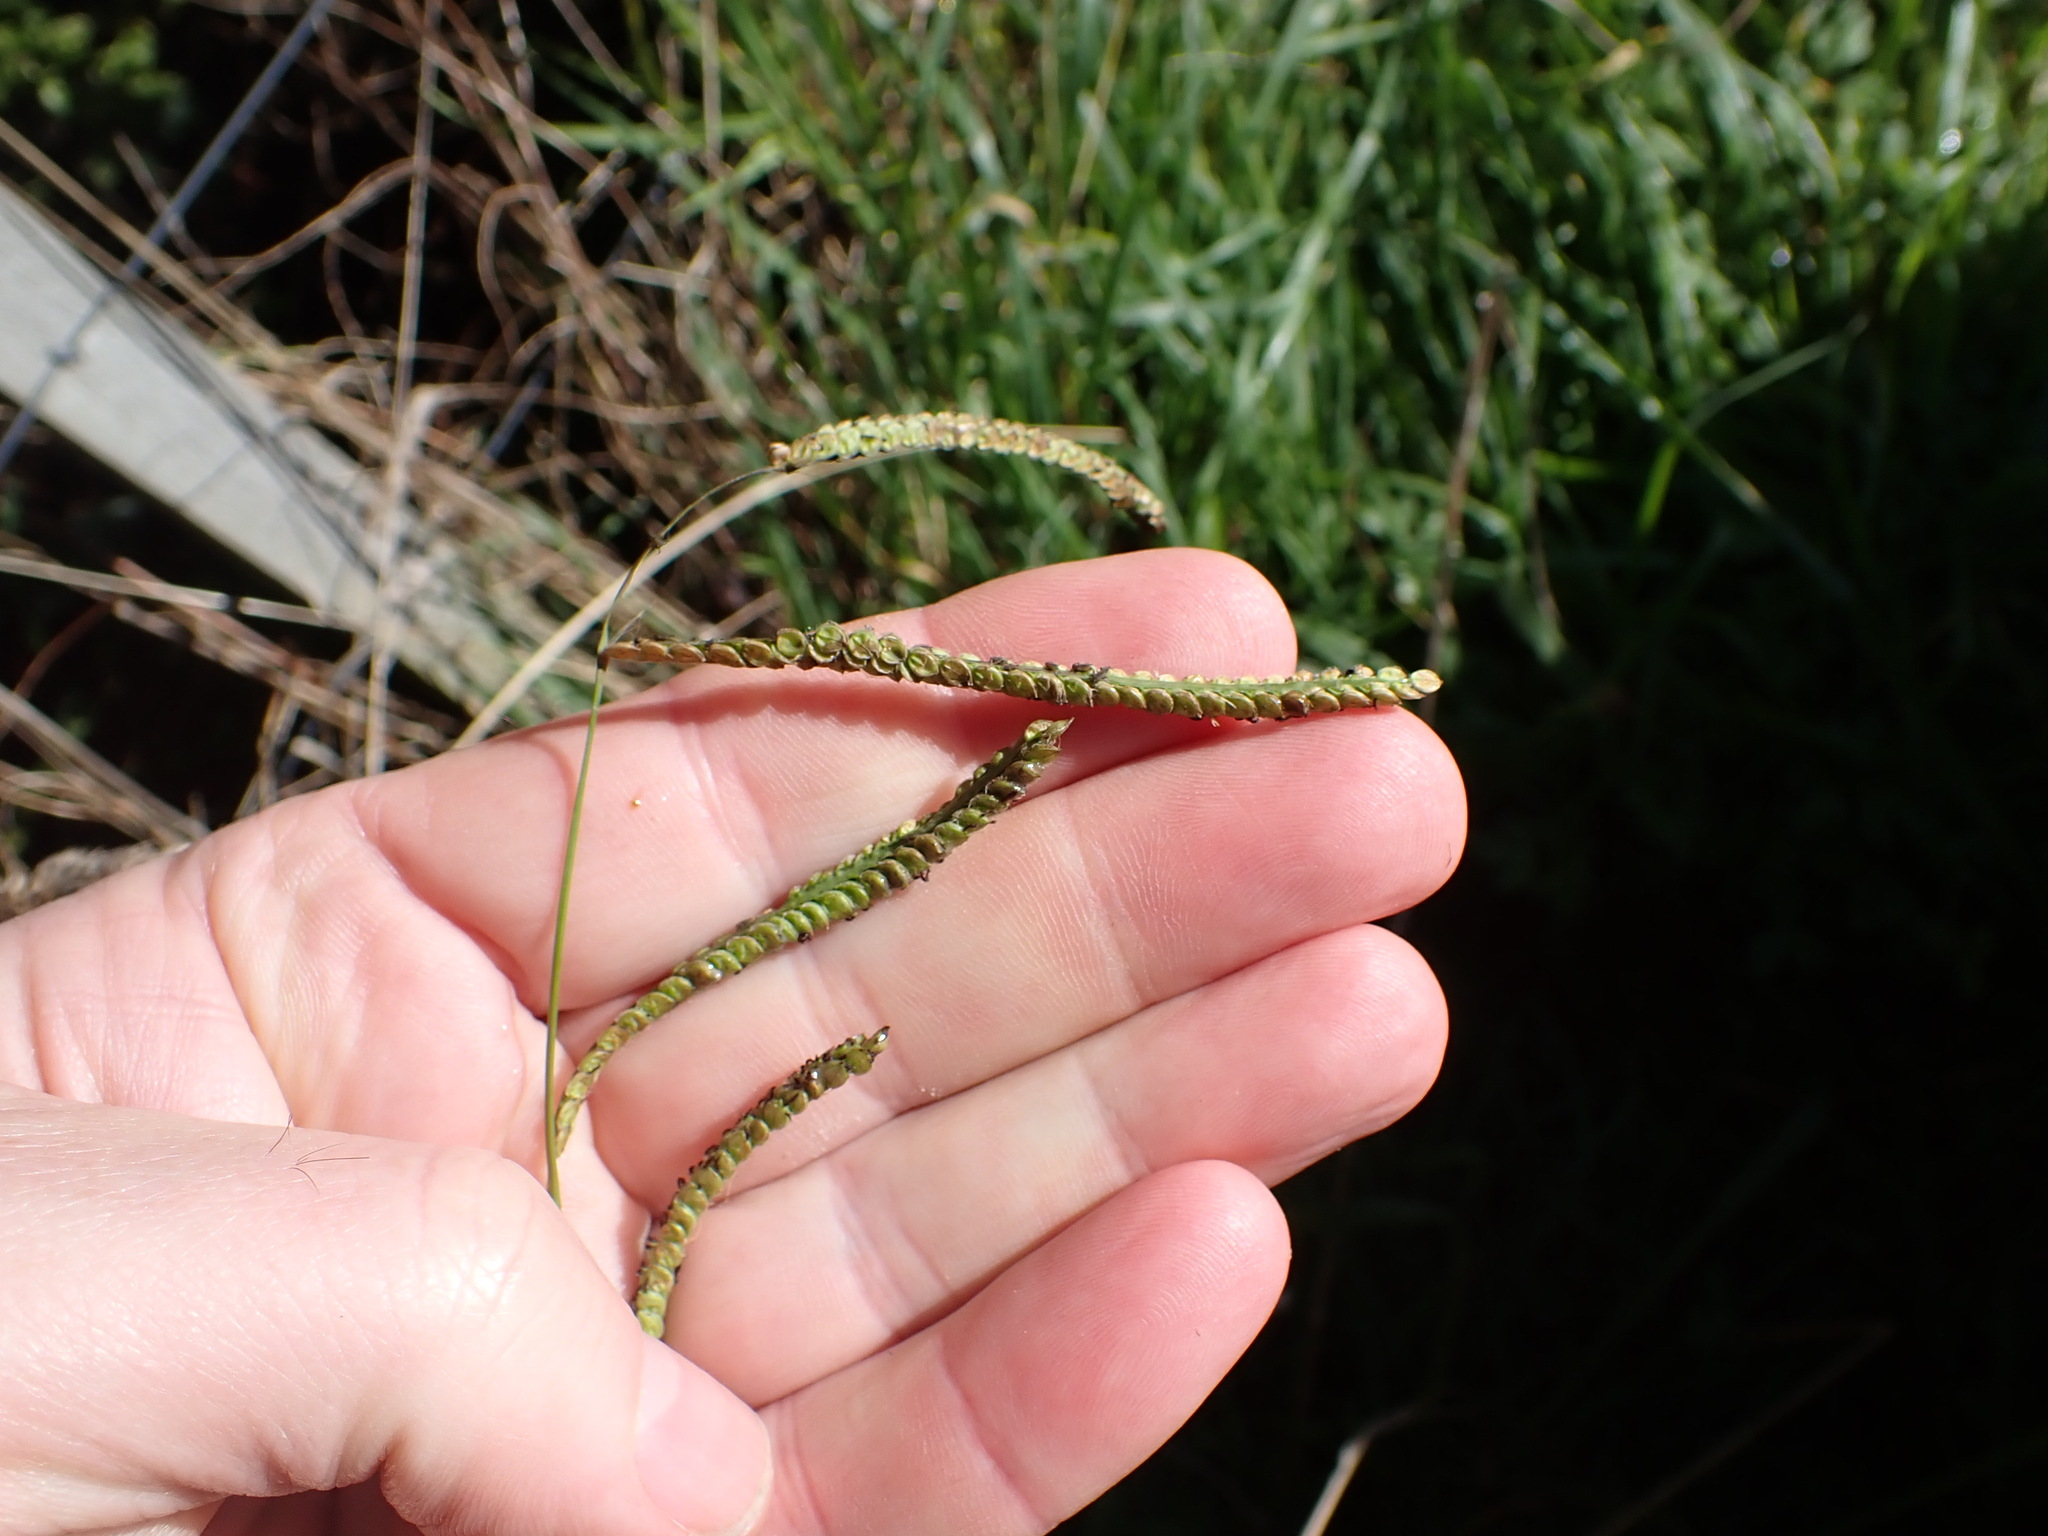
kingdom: Plantae
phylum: Tracheophyta
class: Liliopsida
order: Poales
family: Poaceae
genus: Paspalum
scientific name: Paspalum dilatatum
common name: Dallisgrass
